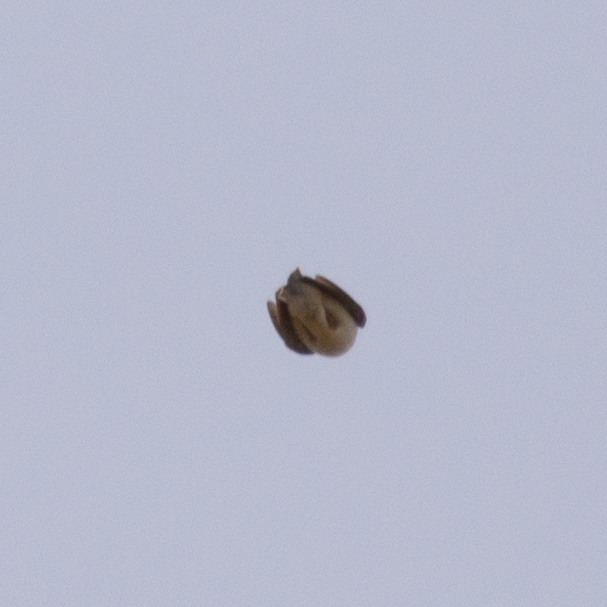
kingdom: Animalia
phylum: Chordata
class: Aves
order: Passeriformes
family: Alaudidae
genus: Lullula
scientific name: Lullula arborea
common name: Woodlark
